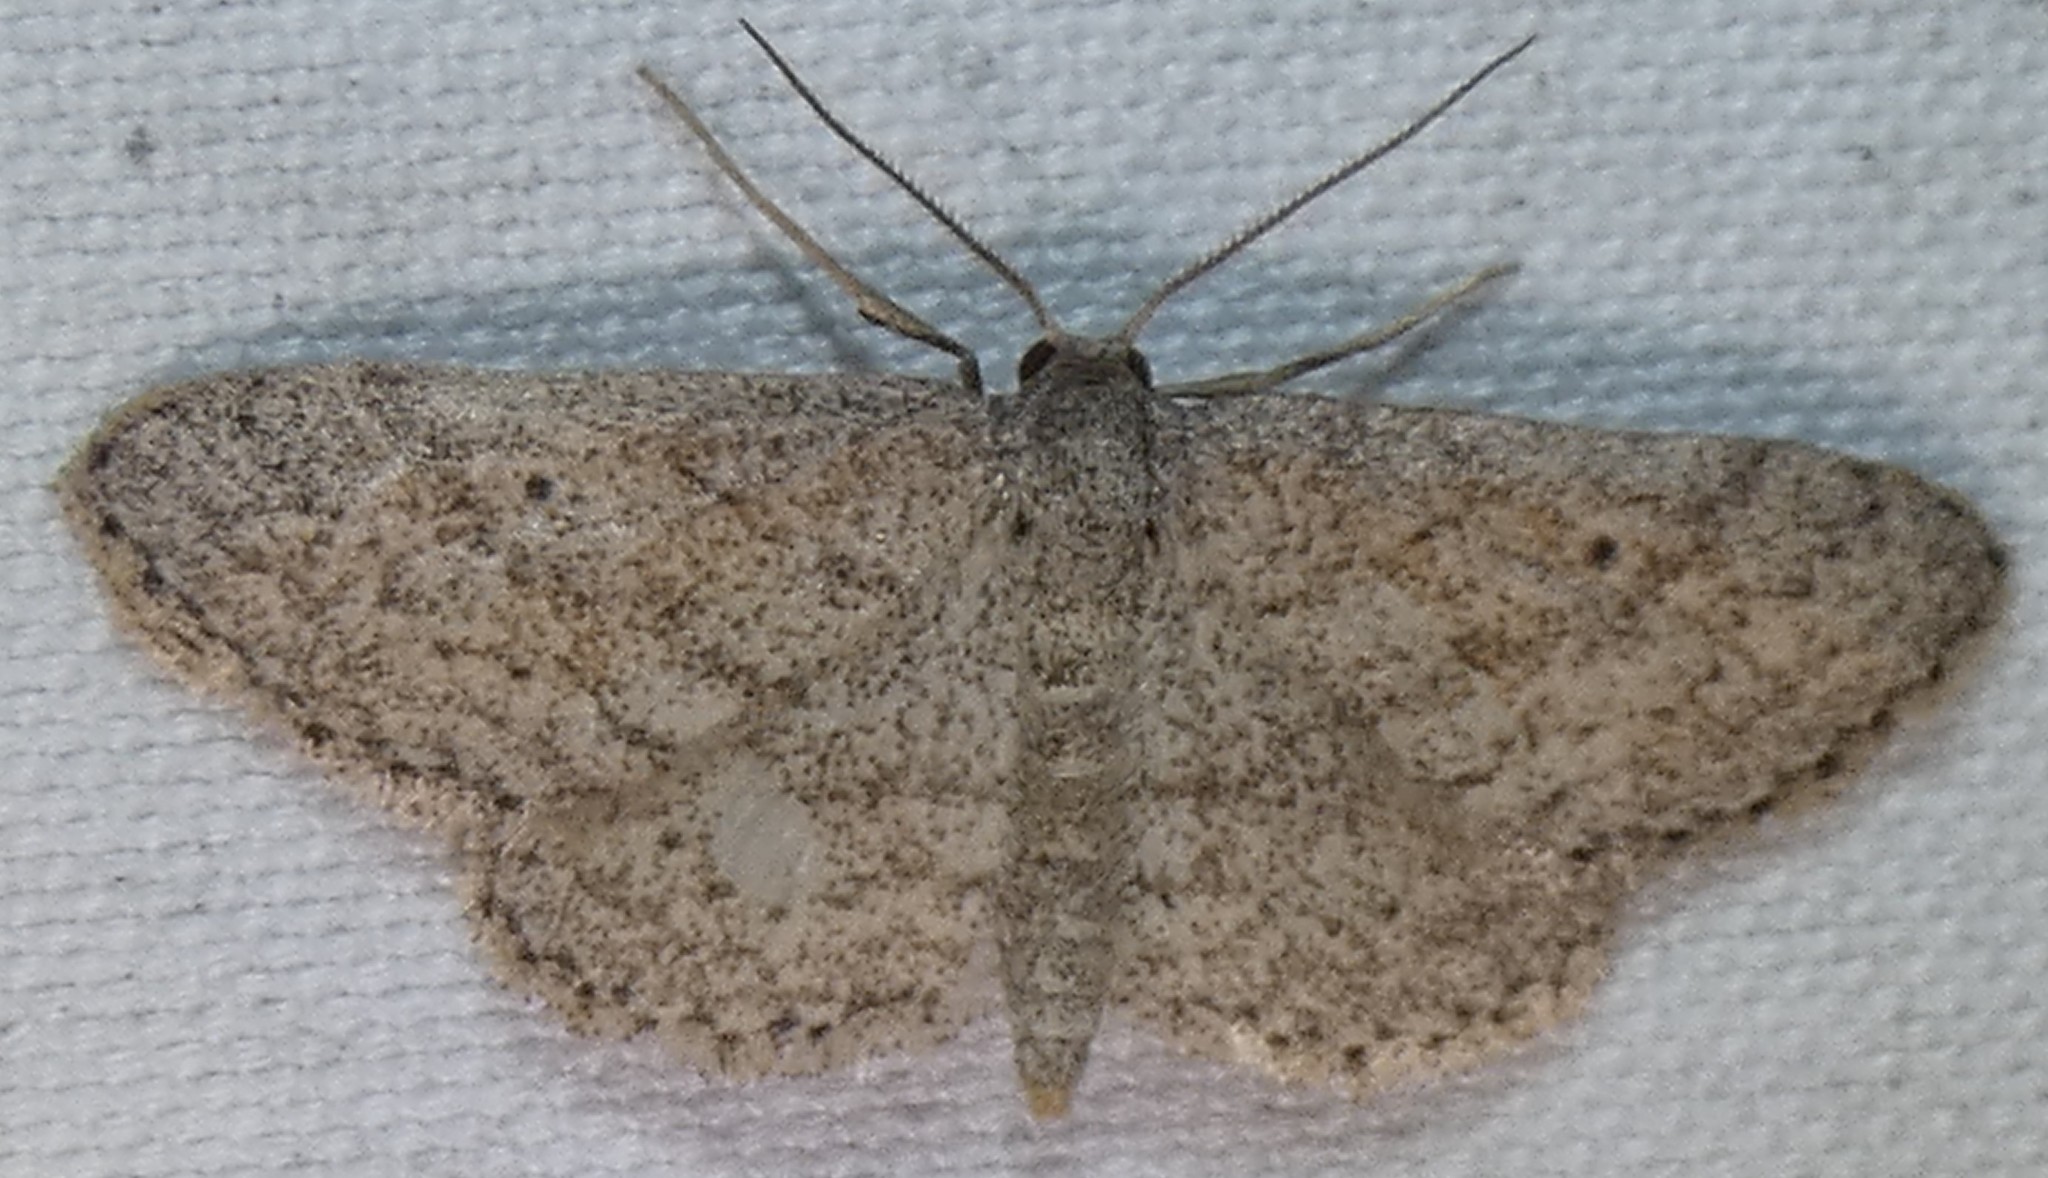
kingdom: Animalia
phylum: Arthropoda
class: Insecta
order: Lepidoptera
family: Geometridae
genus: Lobocleta
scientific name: Lobocleta ossularia
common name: Drab brown wave
